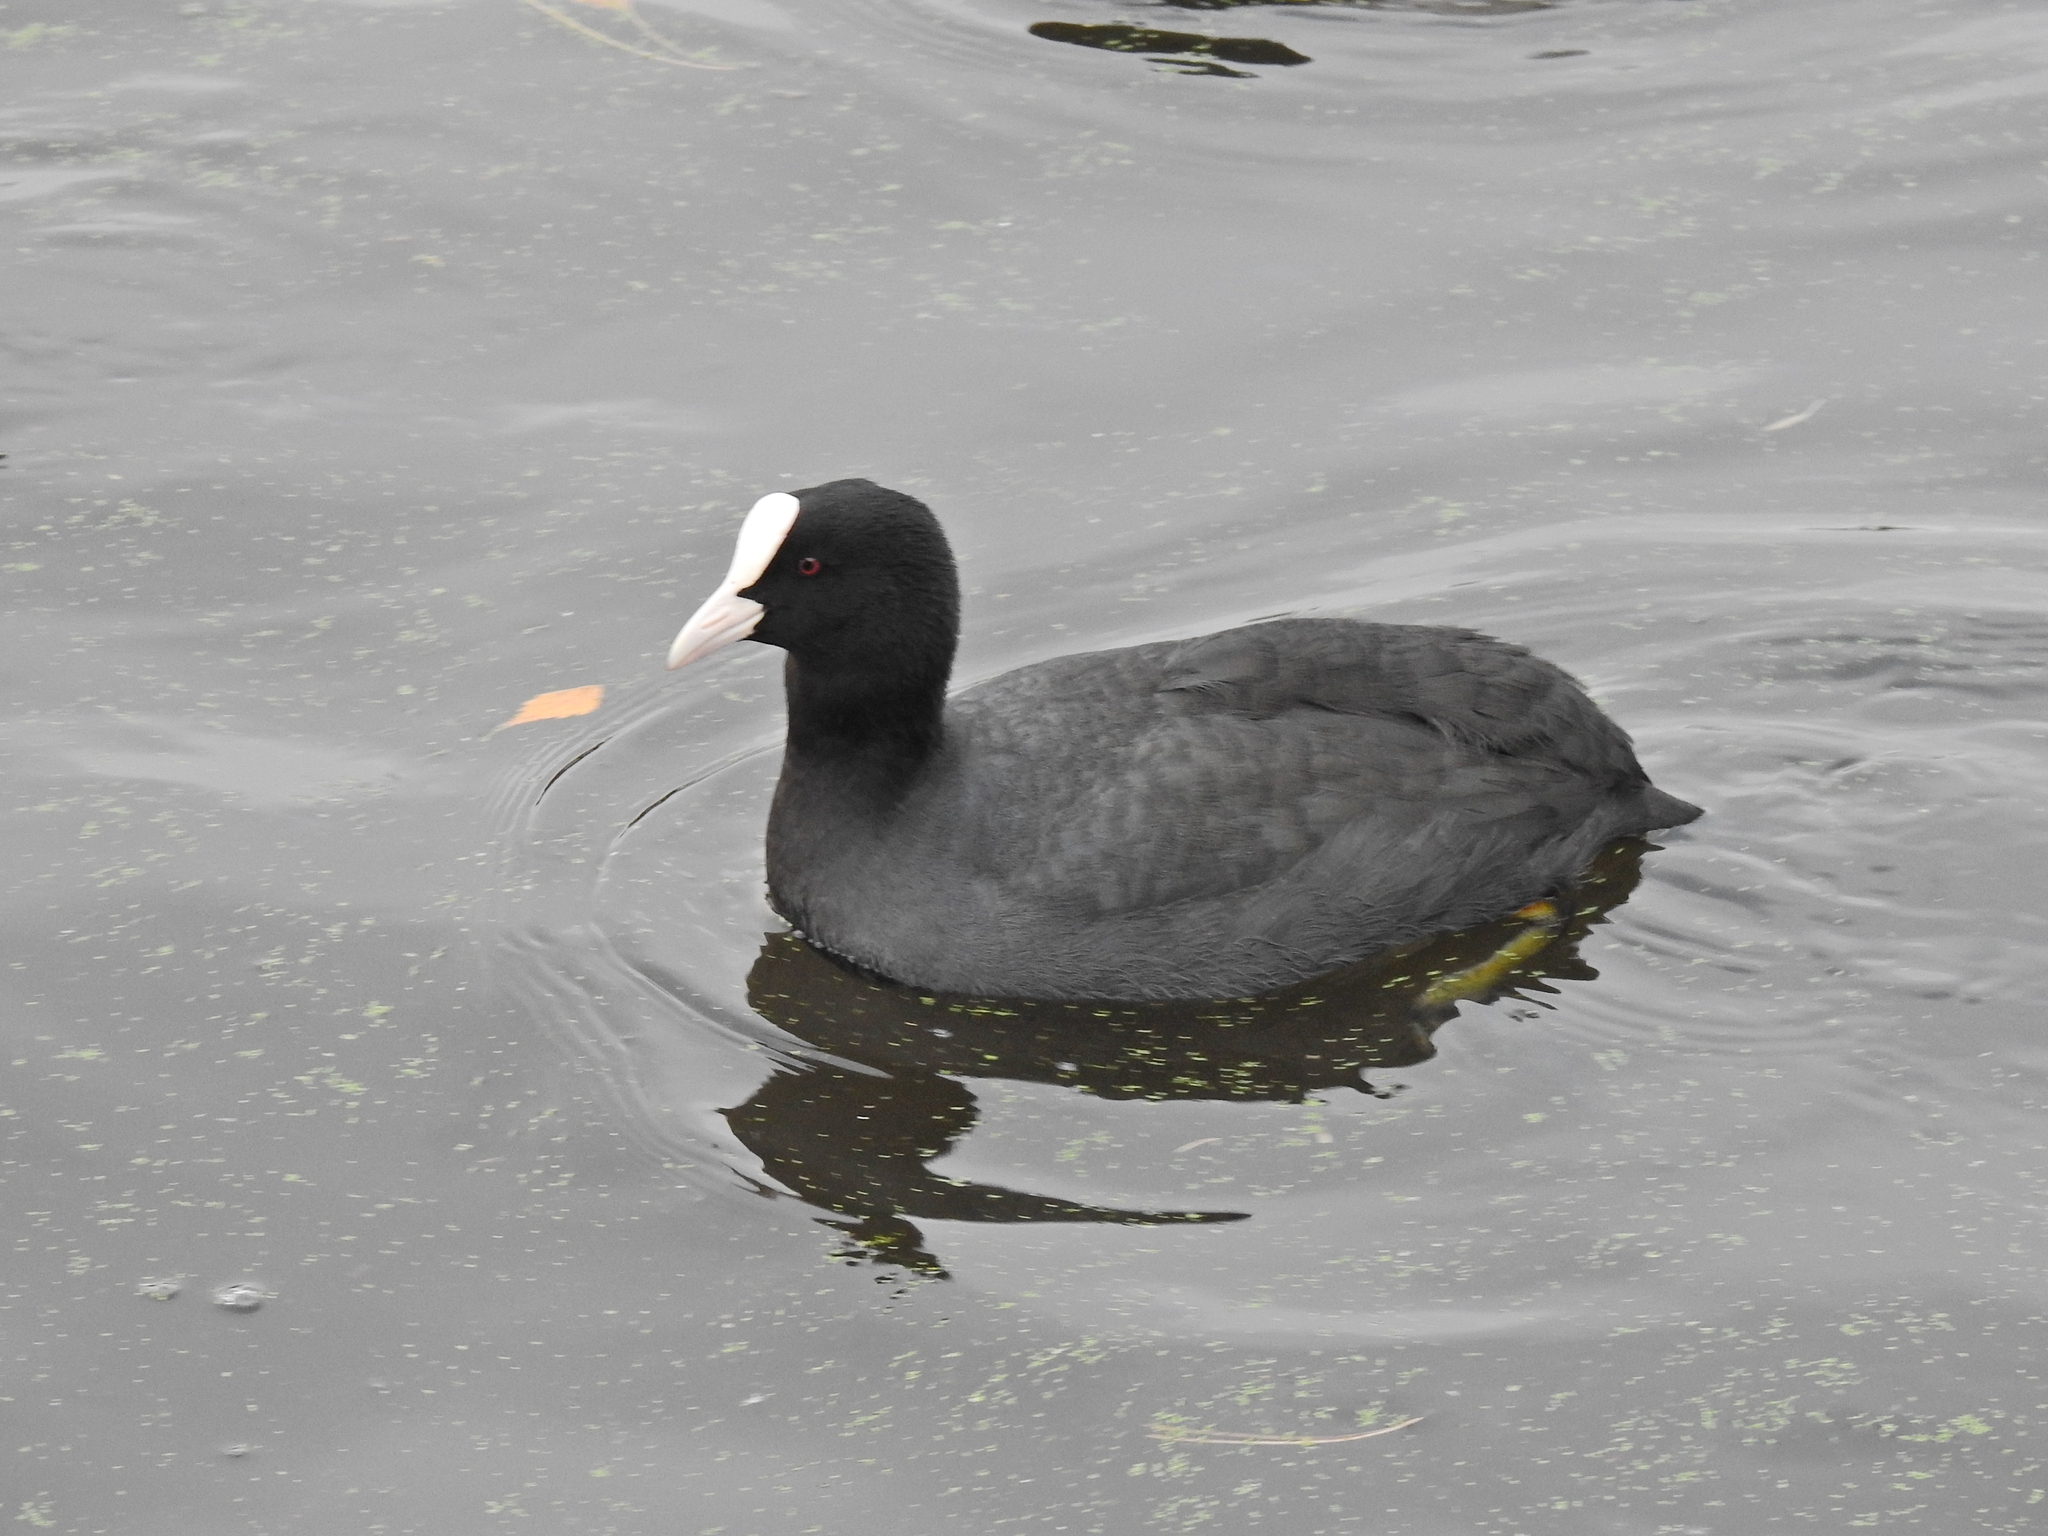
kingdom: Animalia
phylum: Chordata
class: Aves
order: Gruiformes
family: Rallidae
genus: Fulica
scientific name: Fulica atra
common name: Eurasian coot
